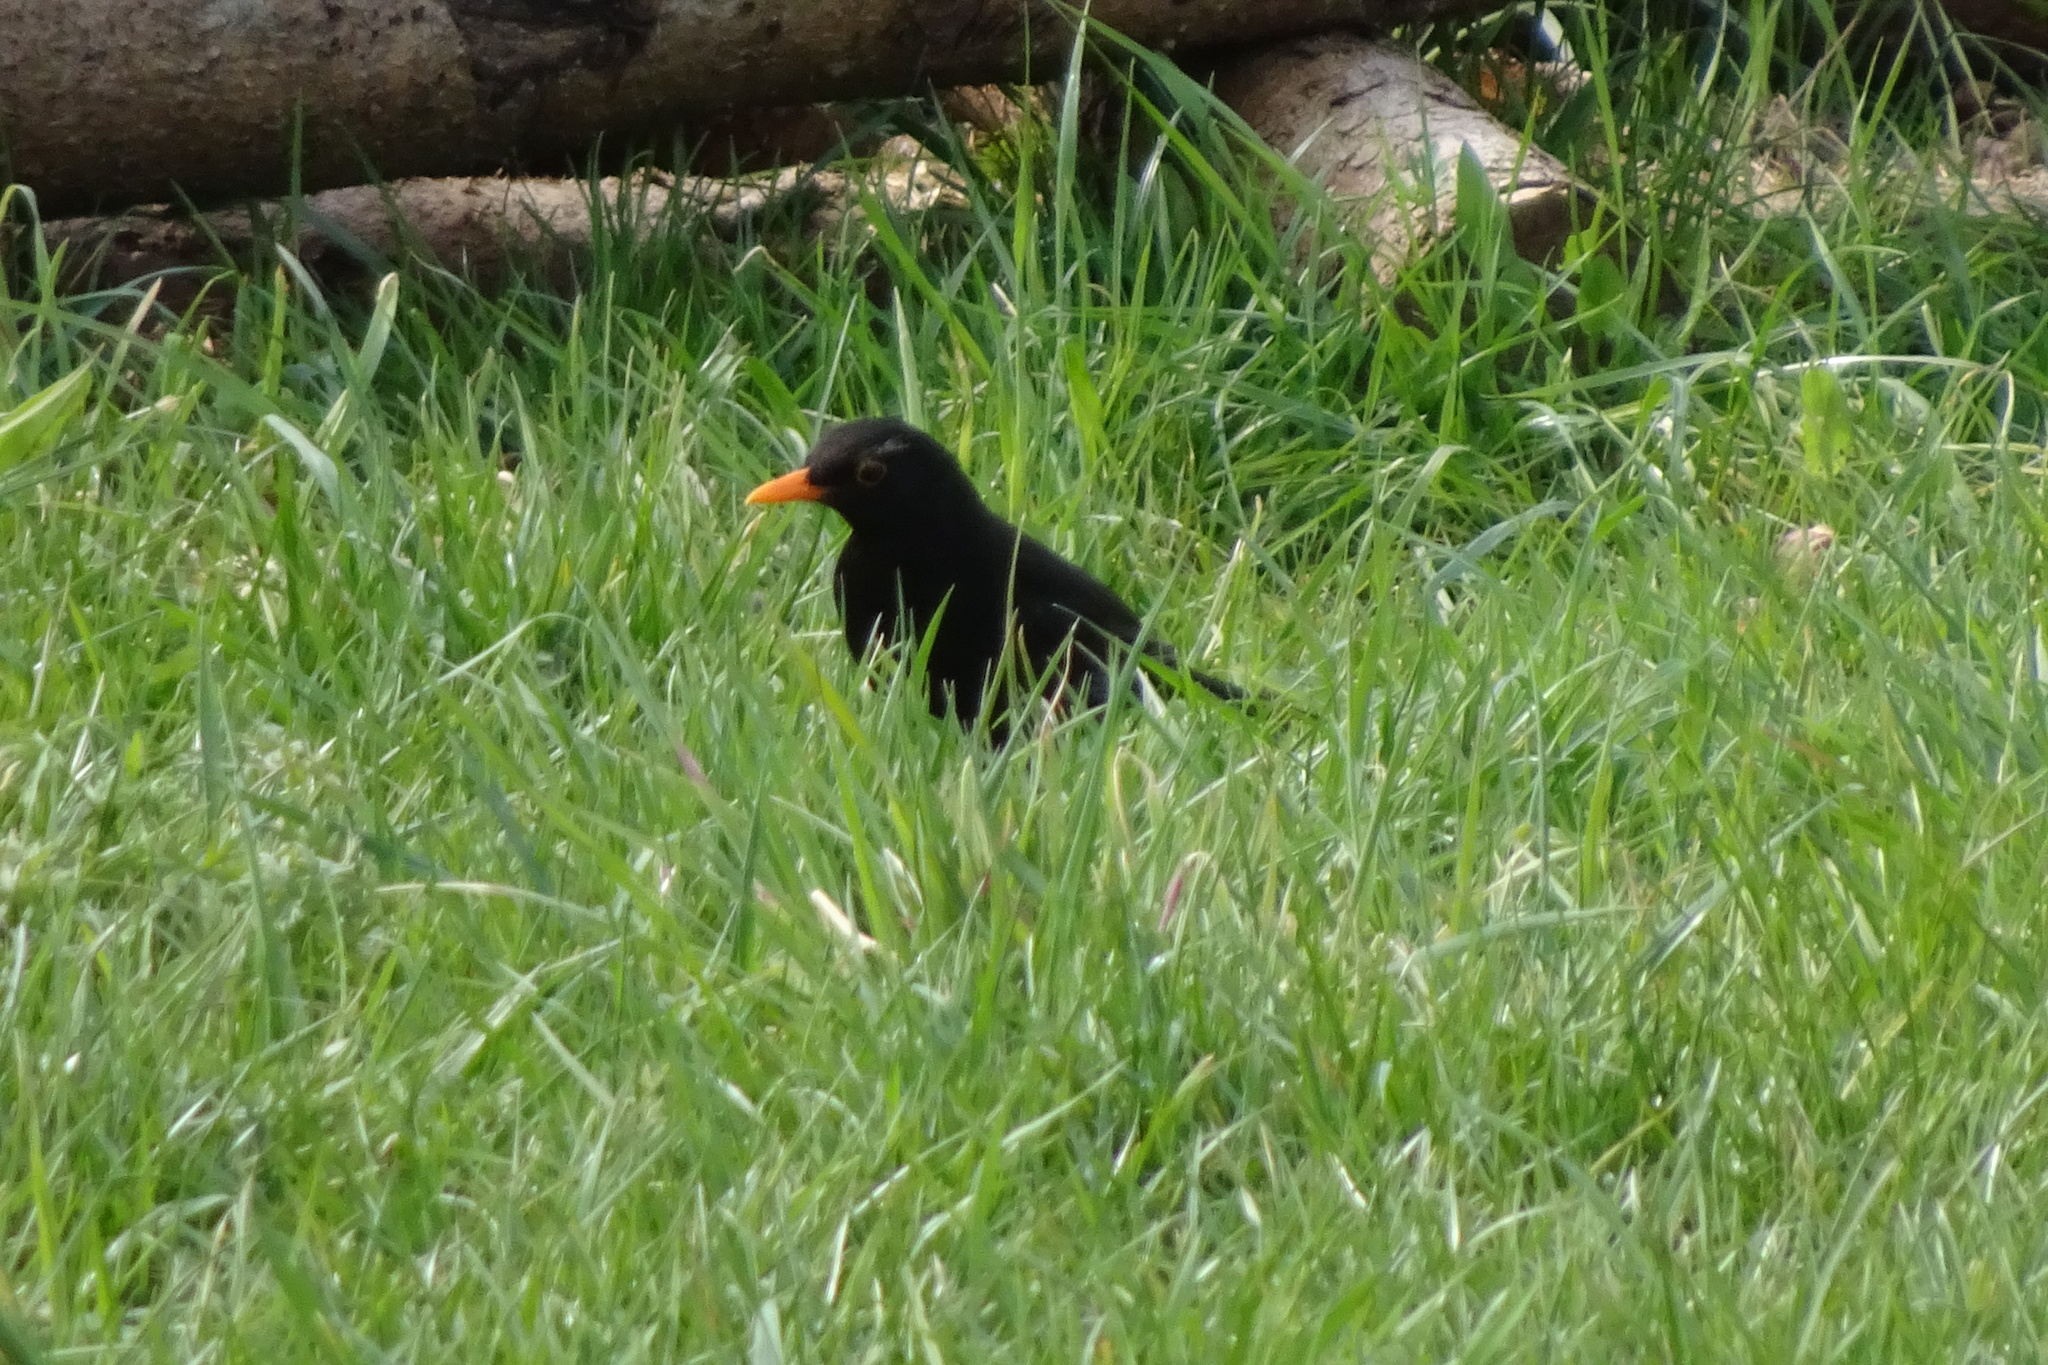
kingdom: Animalia
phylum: Chordata
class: Aves
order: Passeriformes
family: Turdidae
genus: Turdus
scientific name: Turdus merula
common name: Common blackbird
